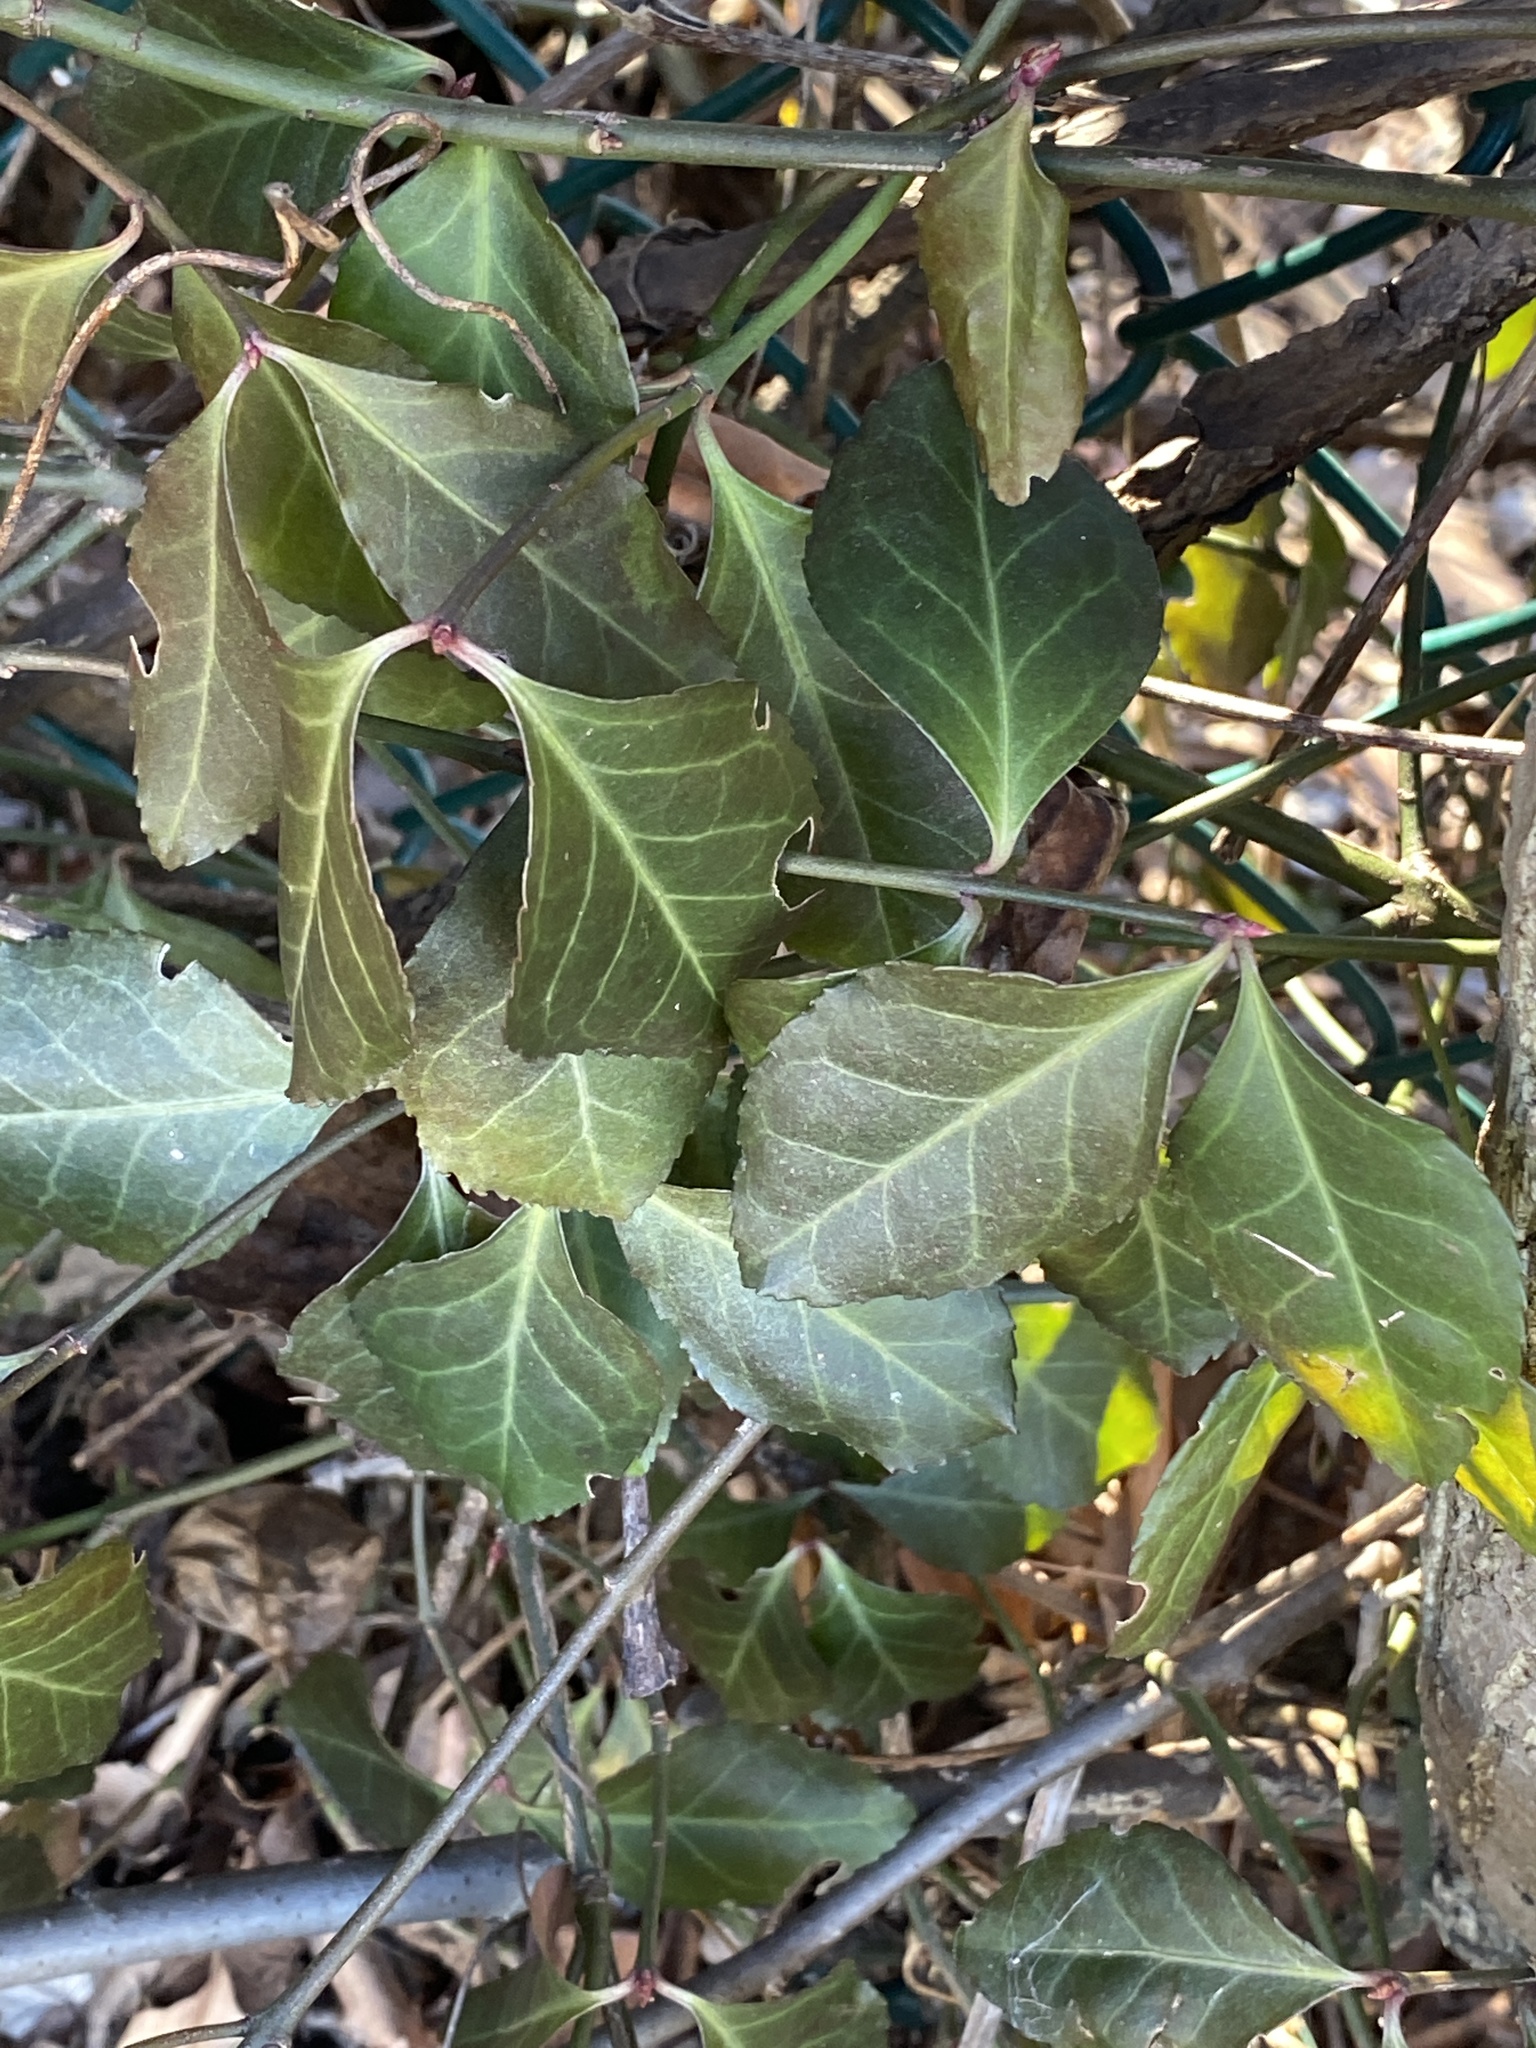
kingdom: Plantae
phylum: Tracheophyta
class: Magnoliopsida
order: Celastrales
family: Celastraceae
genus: Euonymus
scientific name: Euonymus fortunei
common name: Climbing euonymus
